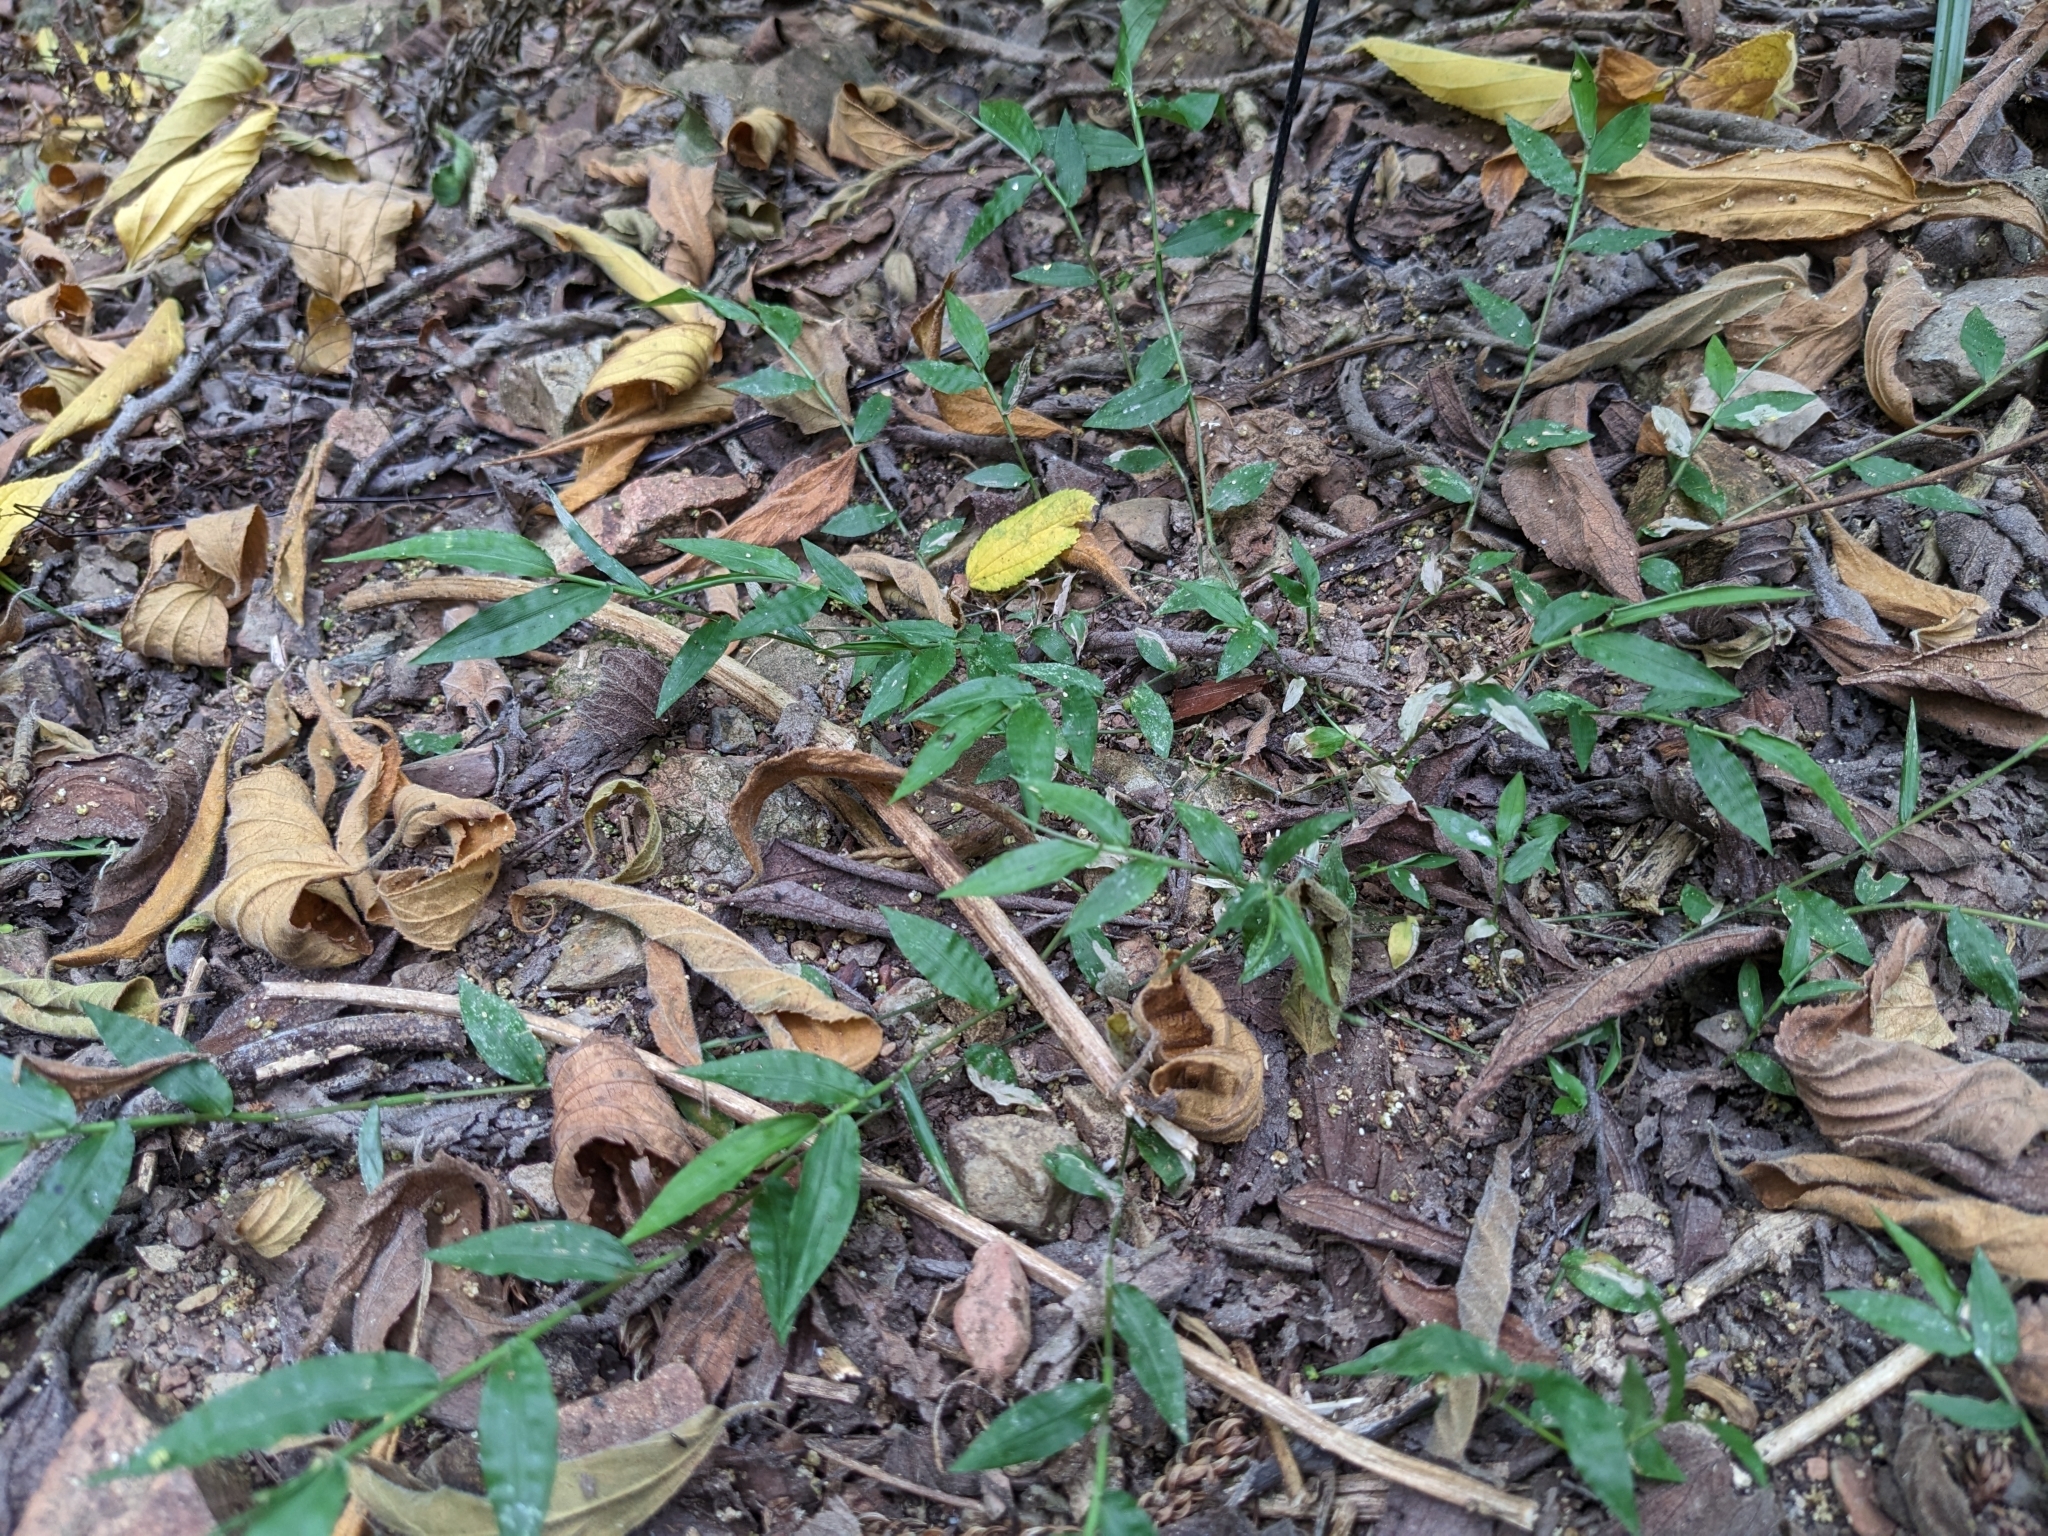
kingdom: Plantae
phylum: Tracheophyta
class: Liliopsida
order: Poales
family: Poaceae
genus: Oplismenus
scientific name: Oplismenus hirtellus
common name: Basketgrass
